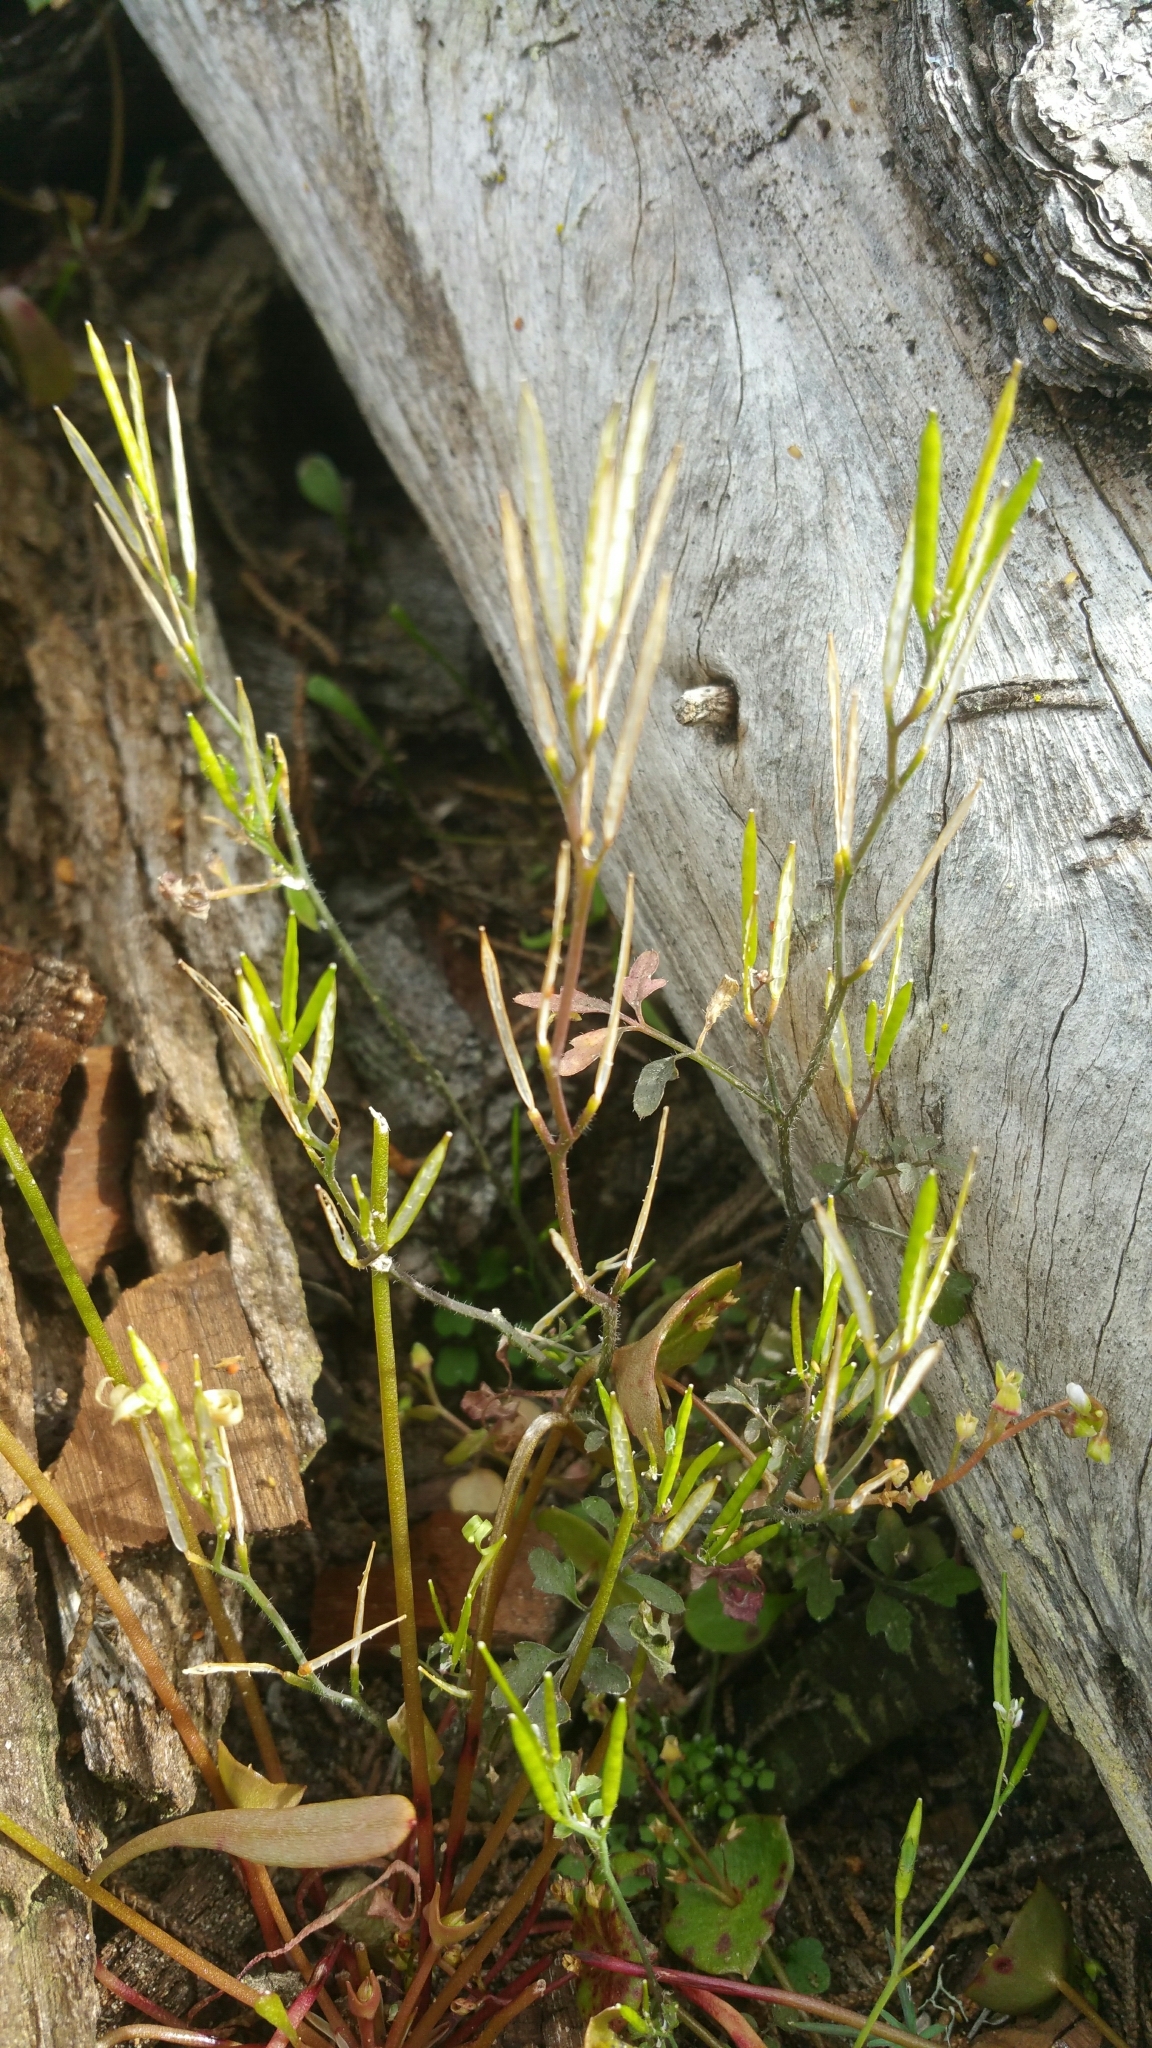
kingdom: Plantae
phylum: Tracheophyta
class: Magnoliopsida
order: Brassicales
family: Brassicaceae
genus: Cardamine
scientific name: Cardamine oligosperma
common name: Idaho bittercress
